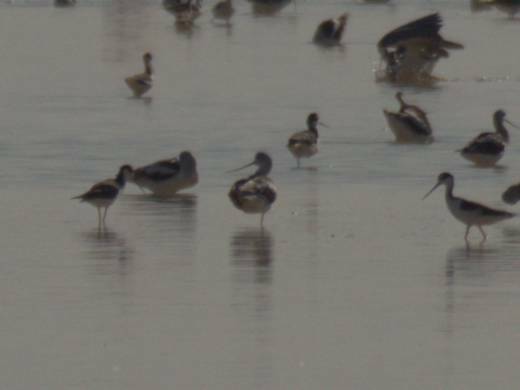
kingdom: Animalia
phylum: Chordata
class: Aves
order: Charadriiformes
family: Recurvirostridae
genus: Recurvirostra
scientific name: Recurvirostra americana
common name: American avocet
